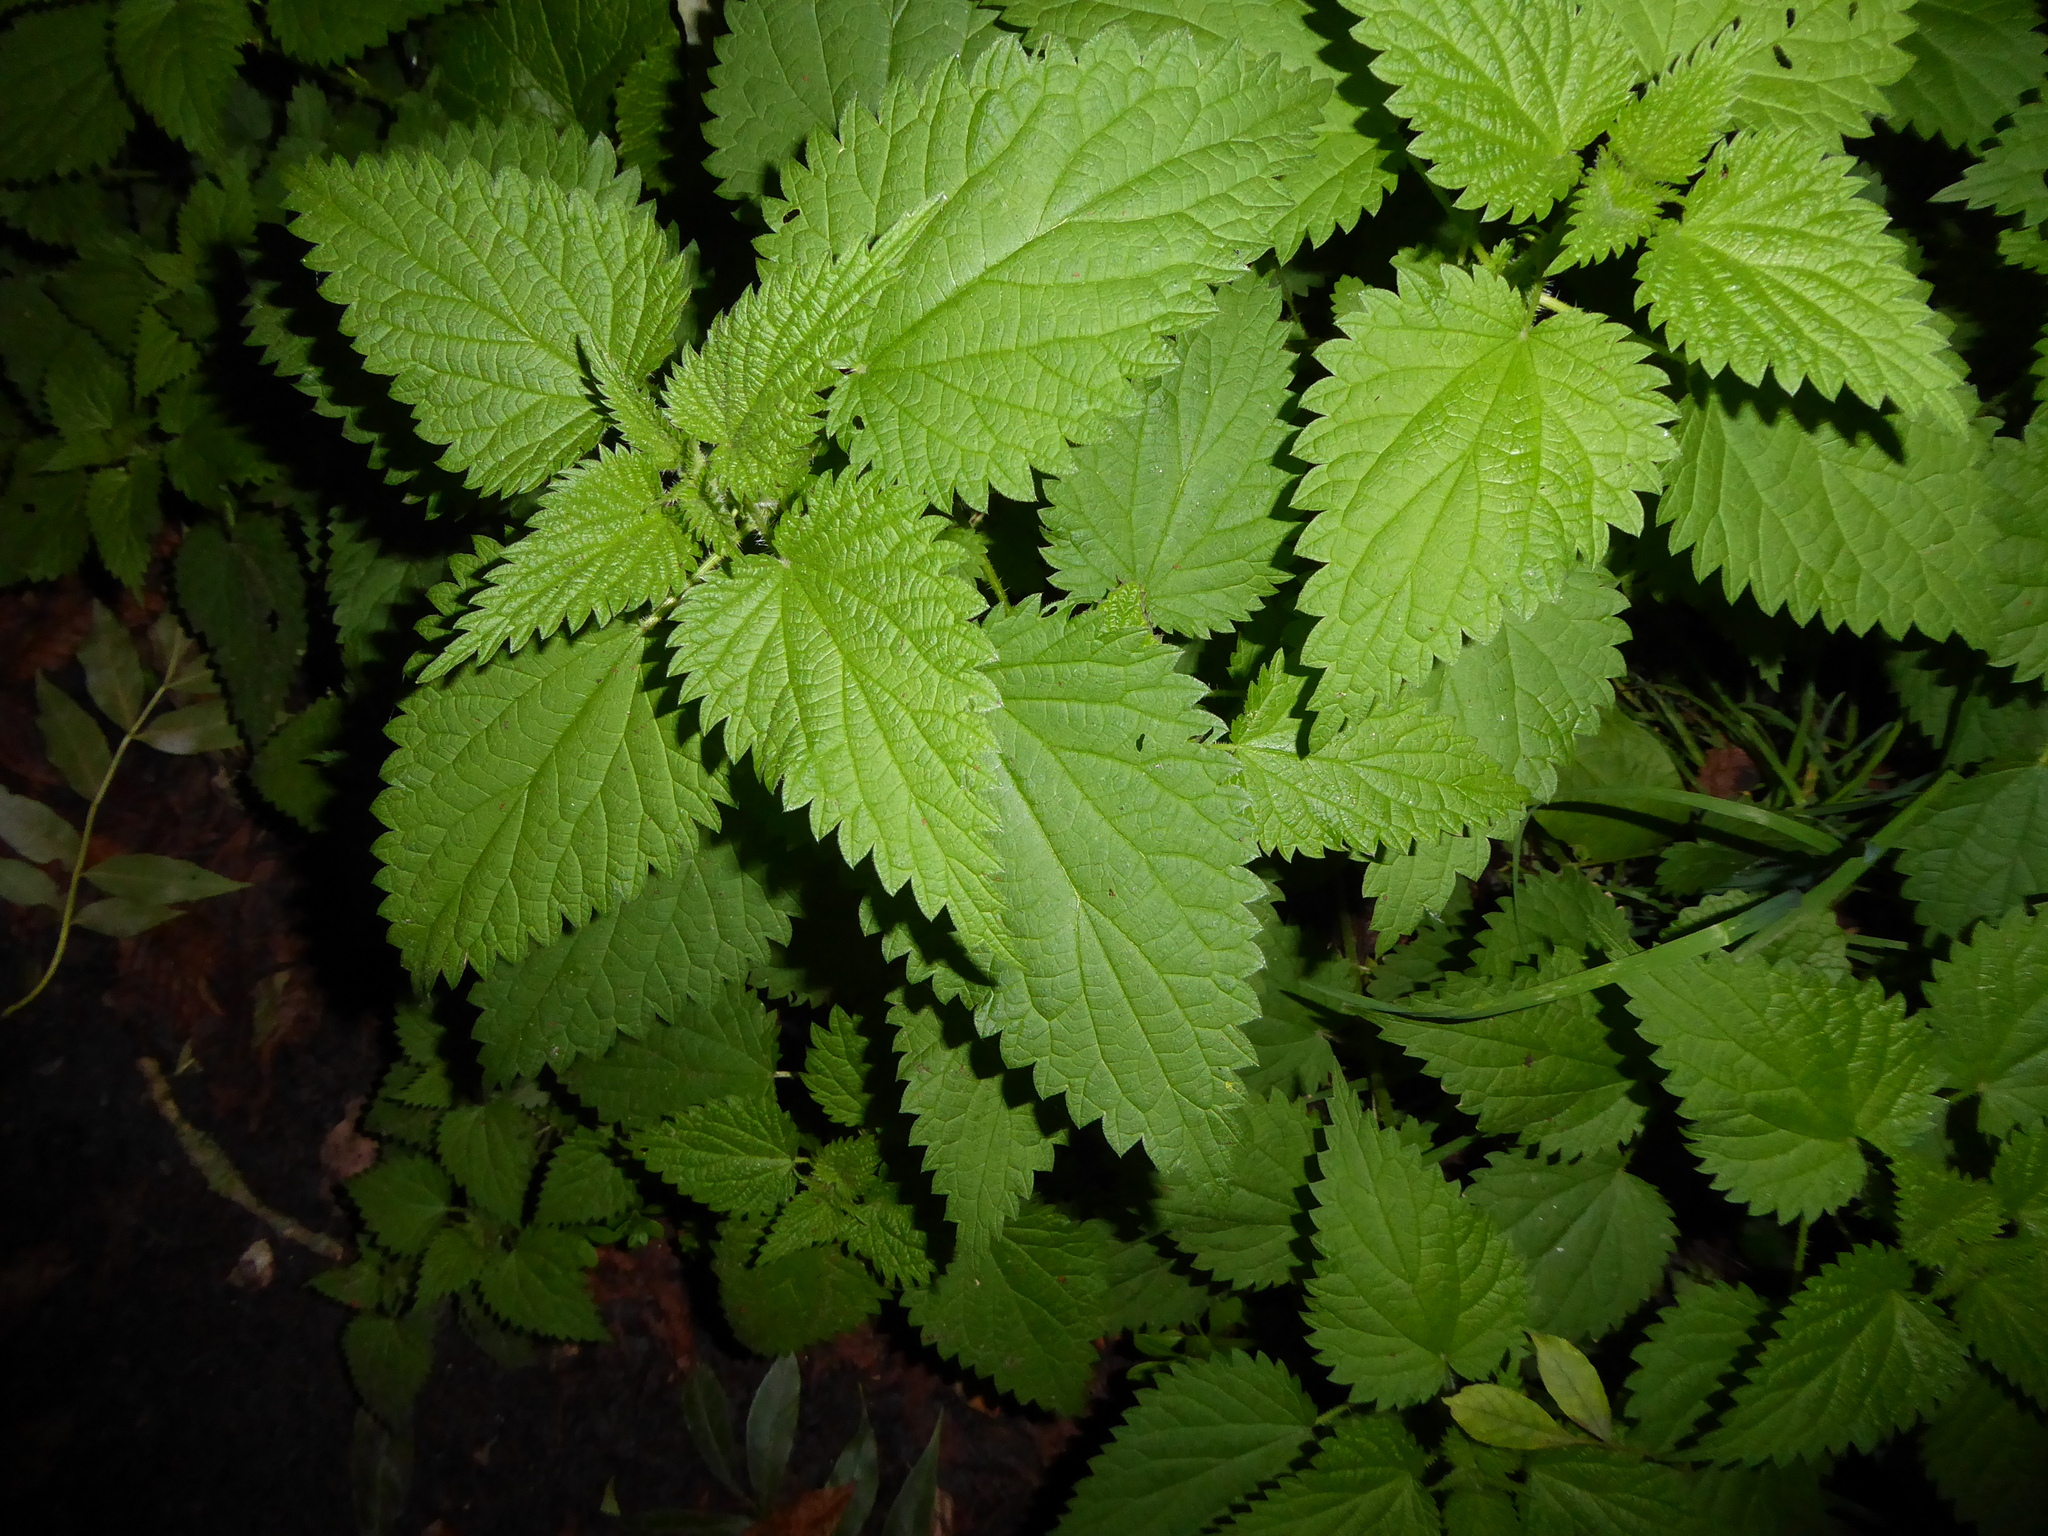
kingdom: Plantae
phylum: Tracheophyta
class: Magnoliopsida
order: Rosales
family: Urticaceae
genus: Urtica
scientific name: Urtica dioica
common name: Common nettle
